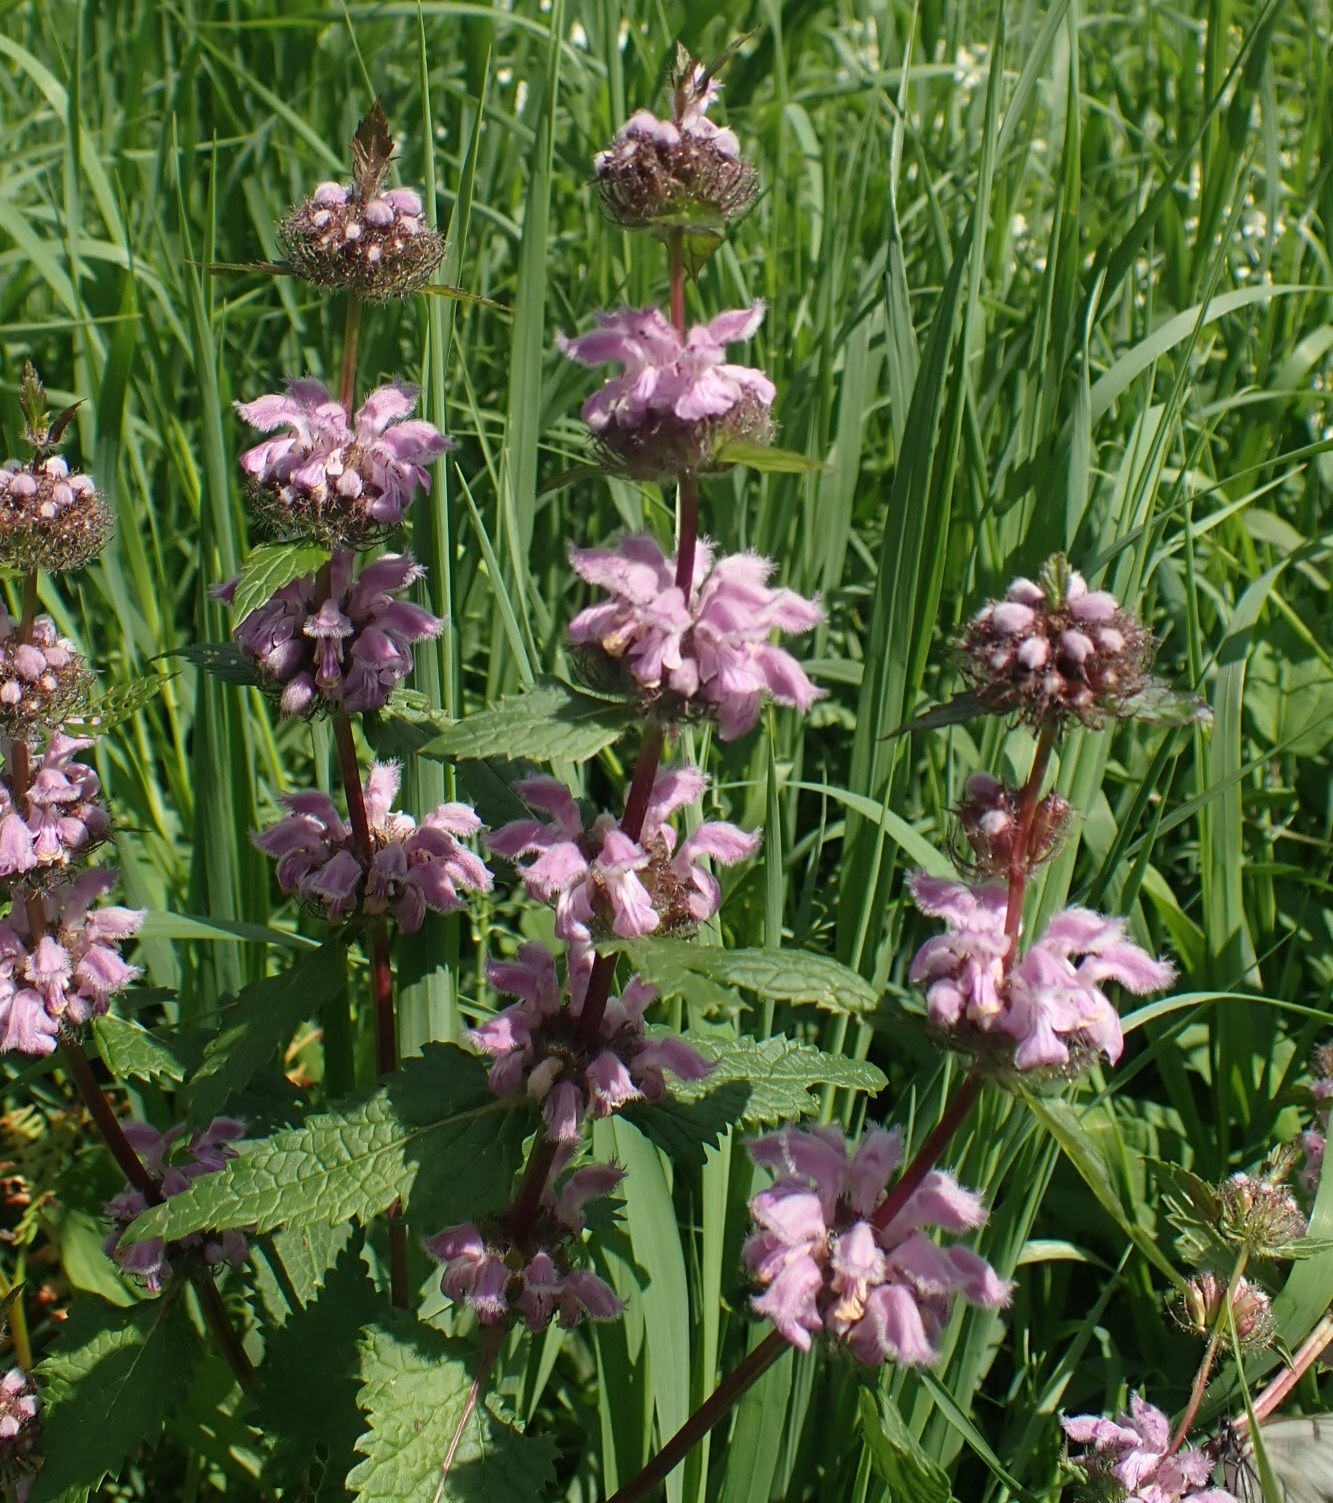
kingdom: Plantae
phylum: Tracheophyta
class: Magnoliopsida
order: Lamiales
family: Lamiaceae
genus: Phlomoides
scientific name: Phlomoides tuberosa
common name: Tuberous jerusalem sage
